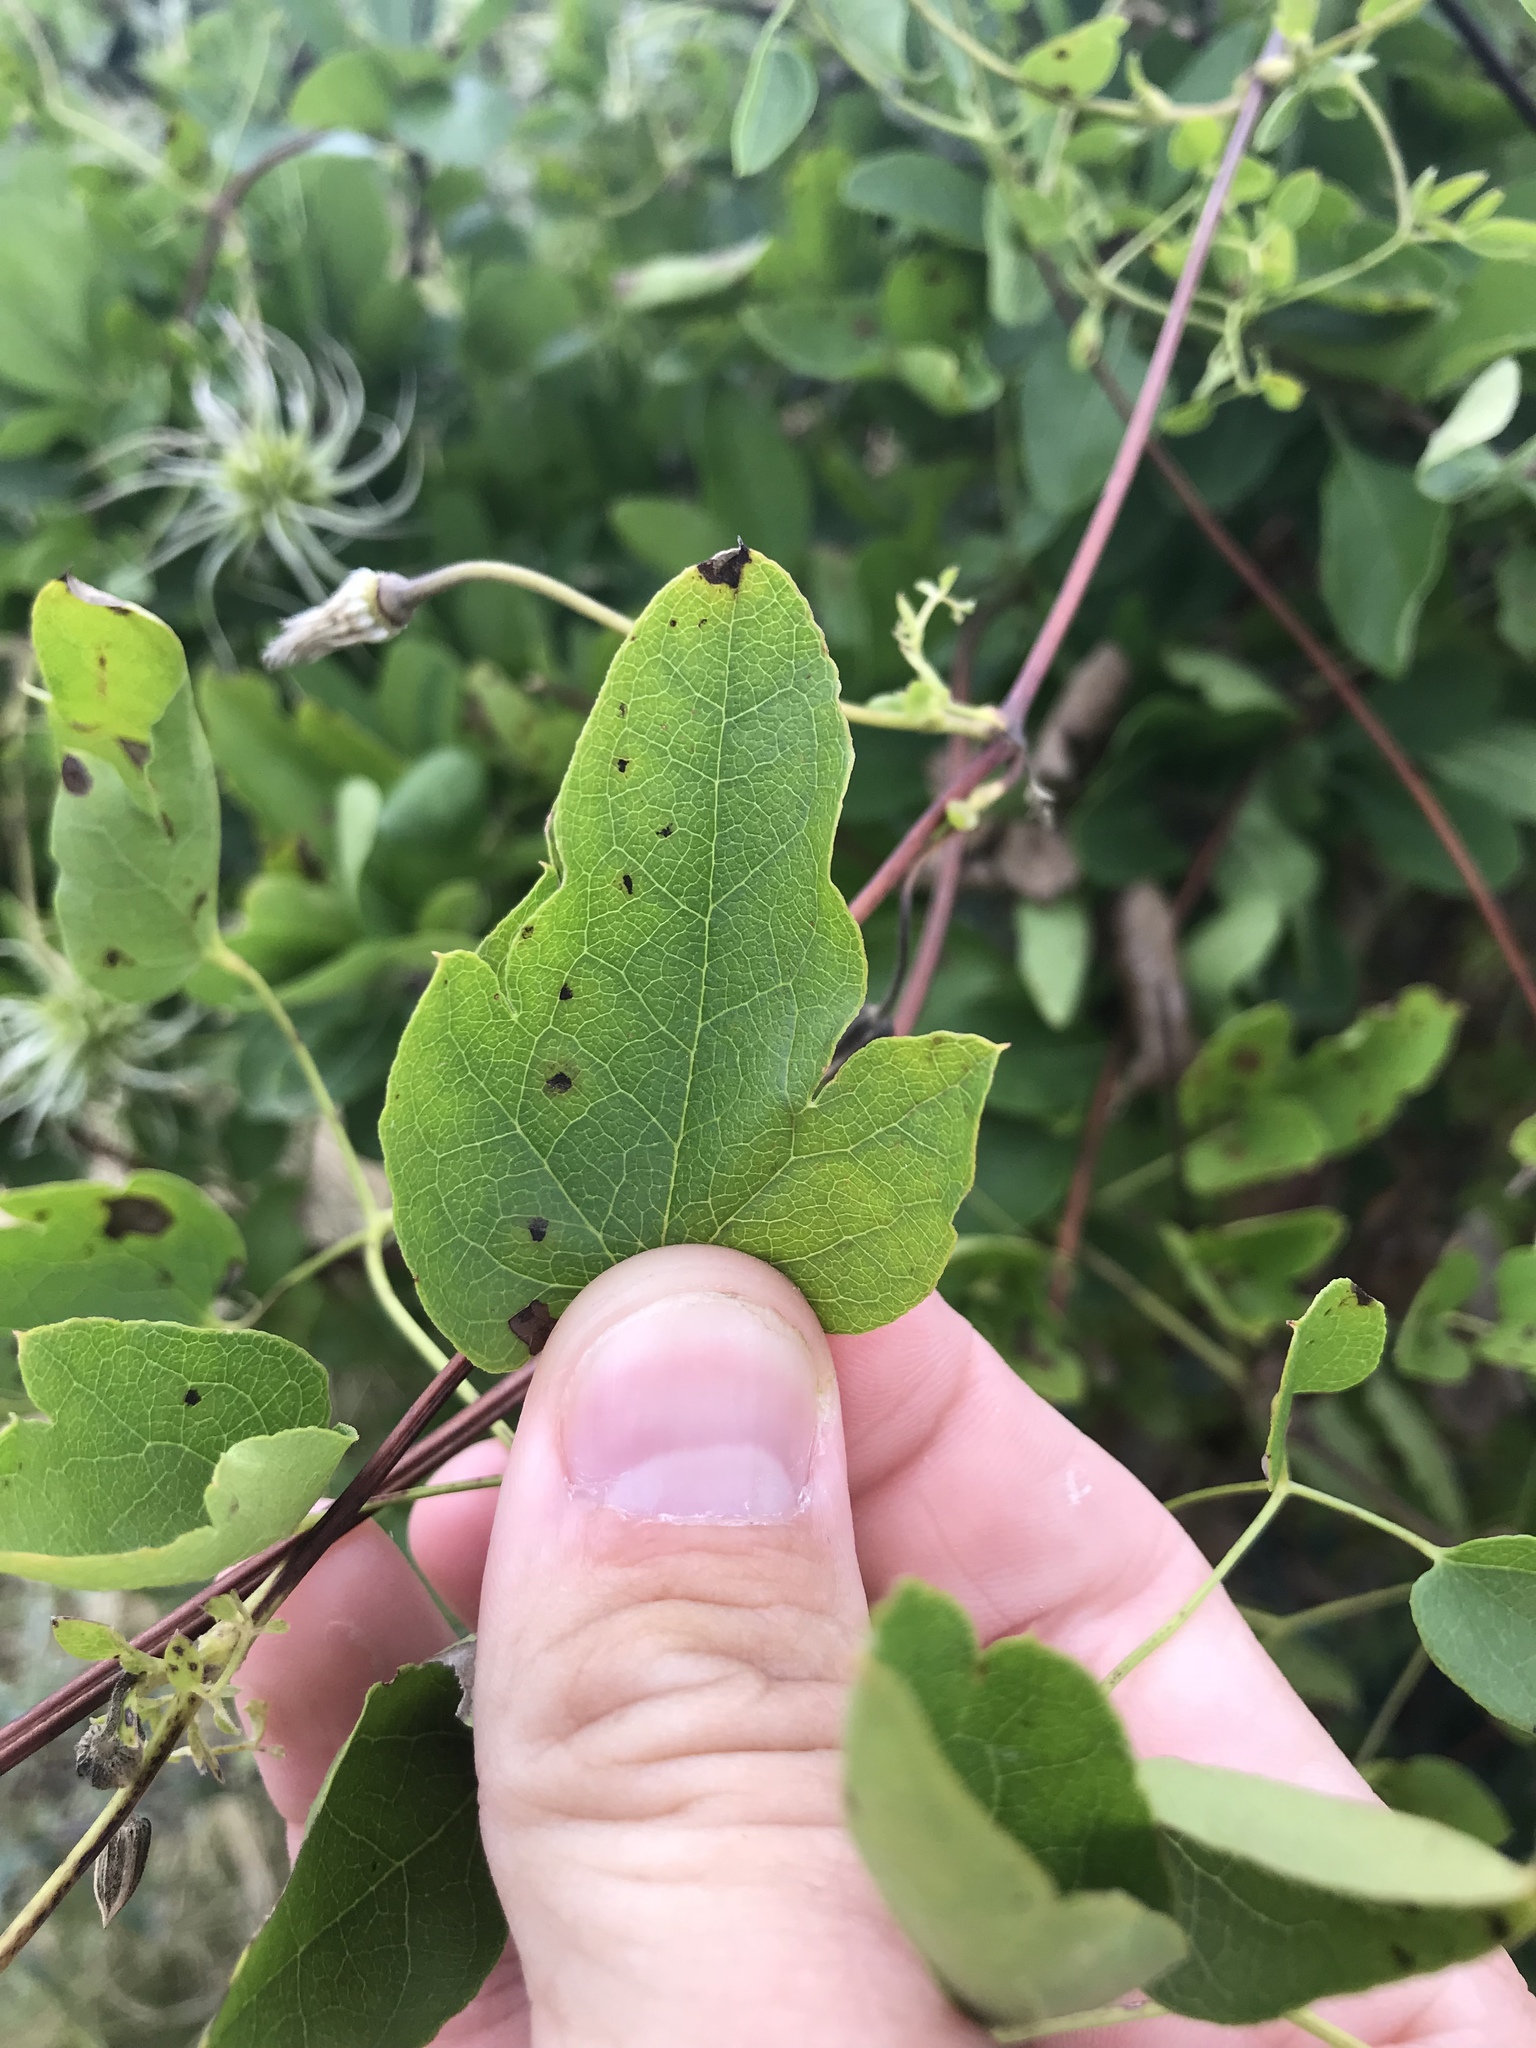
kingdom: Plantae
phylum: Tracheophyta
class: Magnoliopsida
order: Ranunculales
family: Ranunculaceae
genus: Clematis
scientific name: Clematis pitcheri
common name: Bellflower clematis
